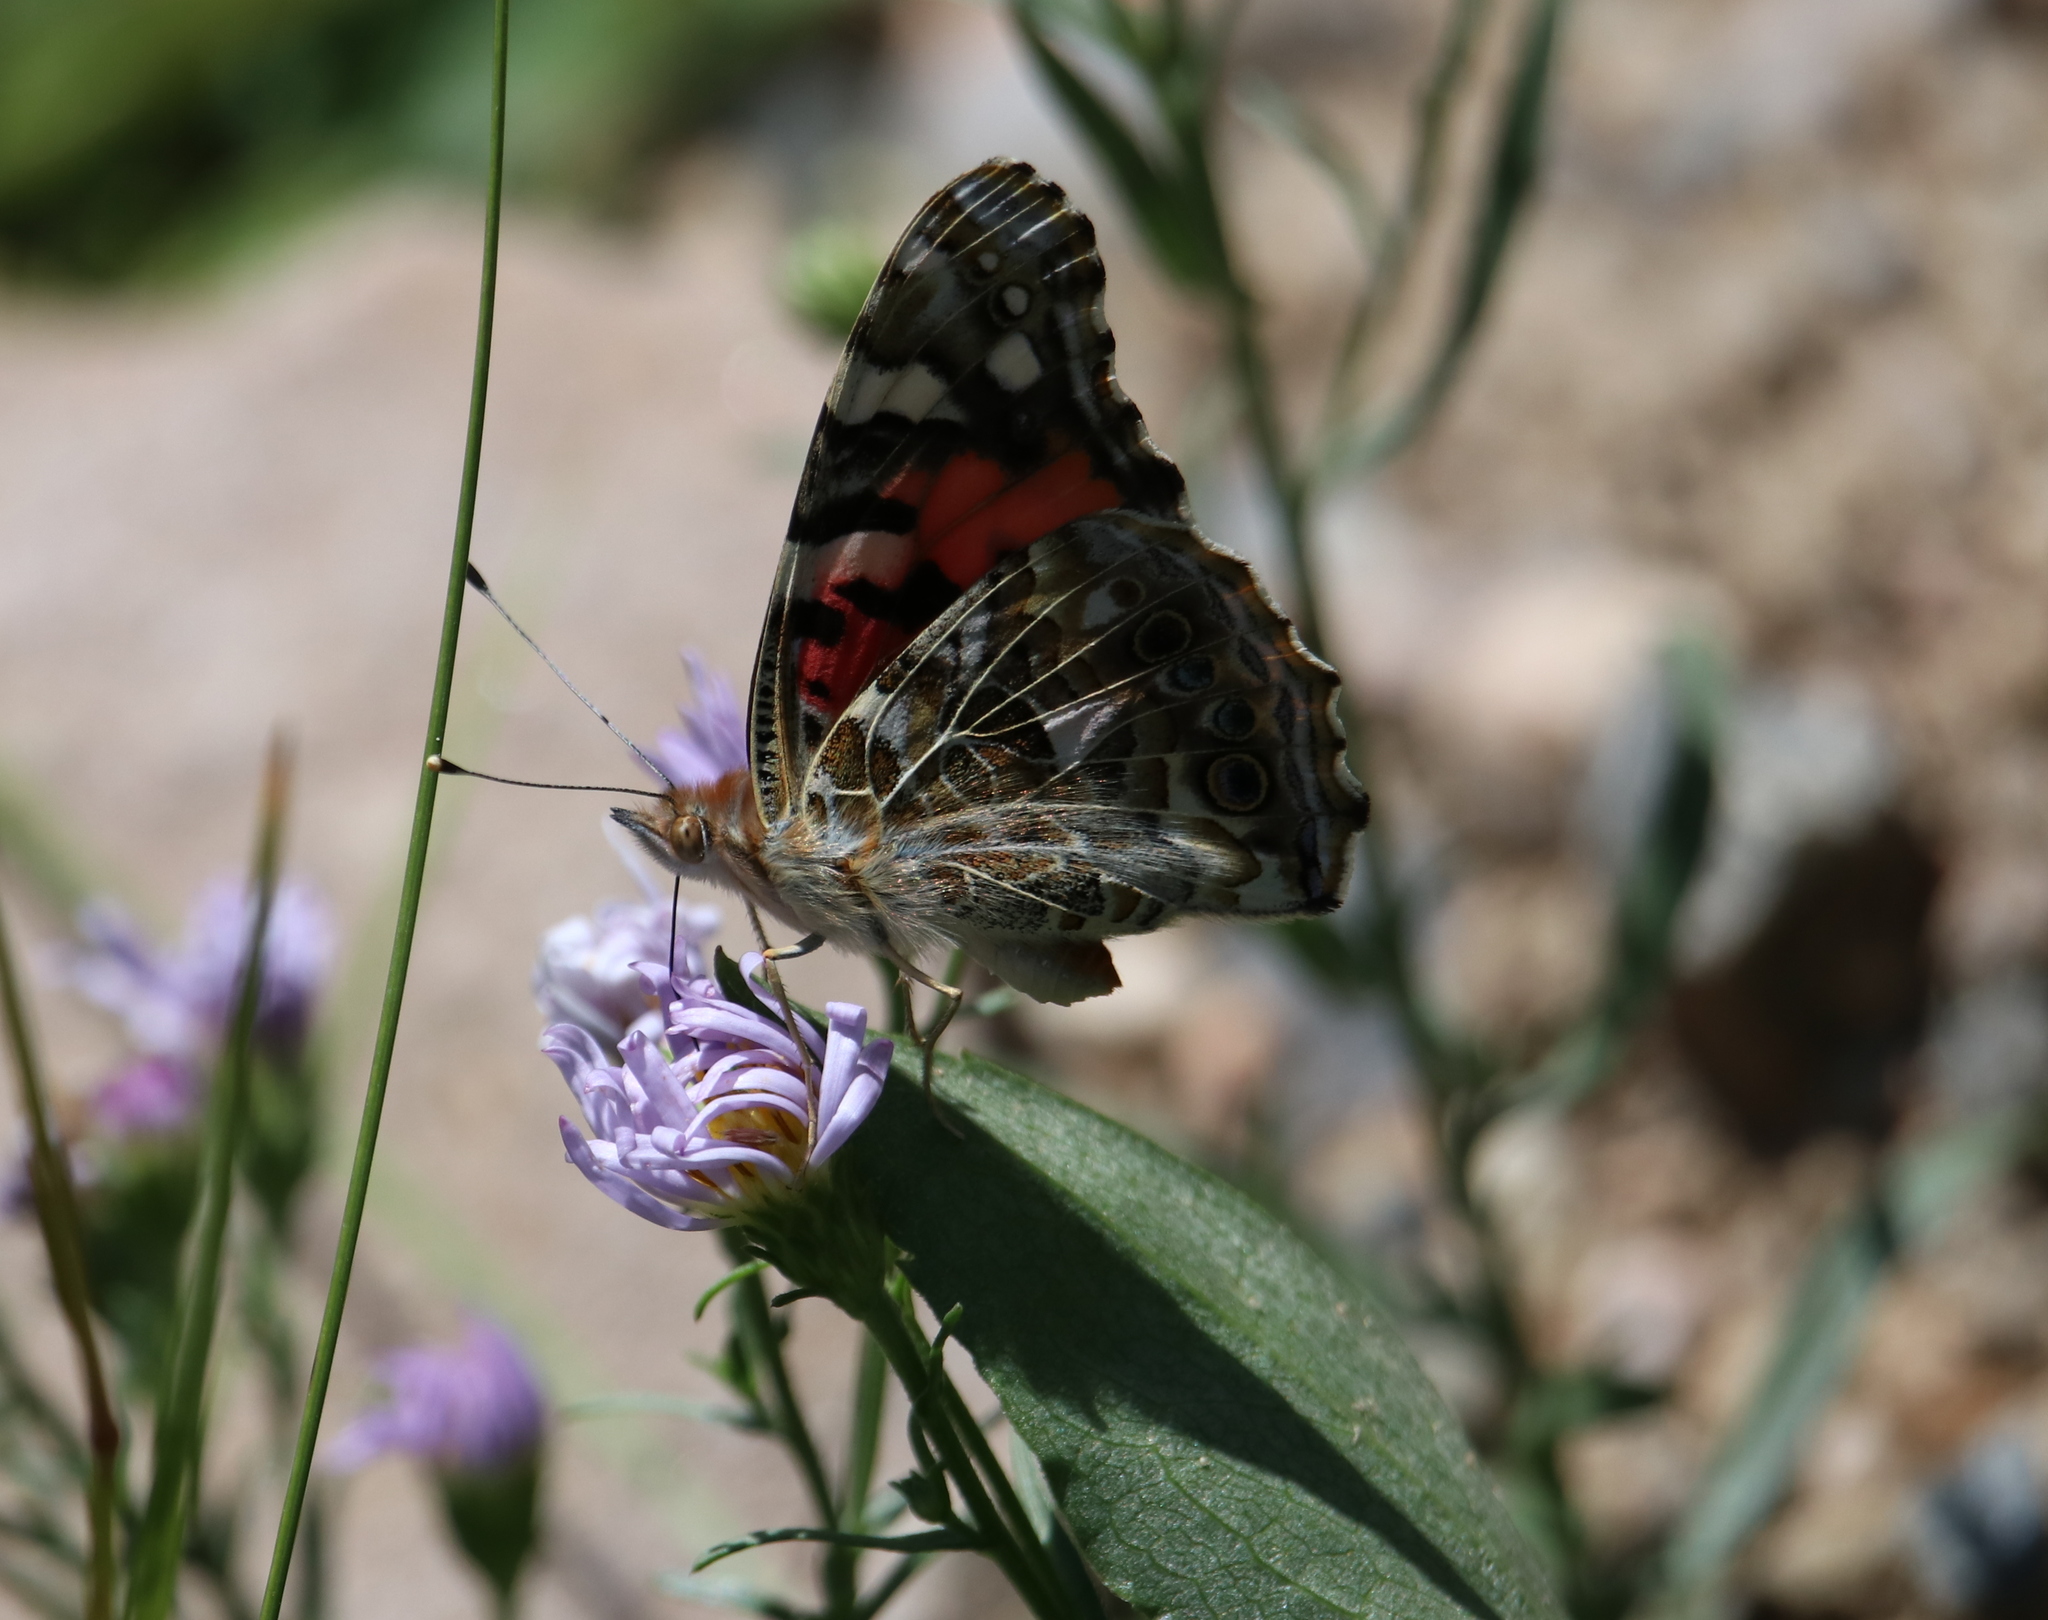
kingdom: Animalia
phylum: Arthropoda
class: Insecta
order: Lepidoptera
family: Nymphalidae
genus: Vanessa
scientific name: Vanessa cardui
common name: Painted lady
